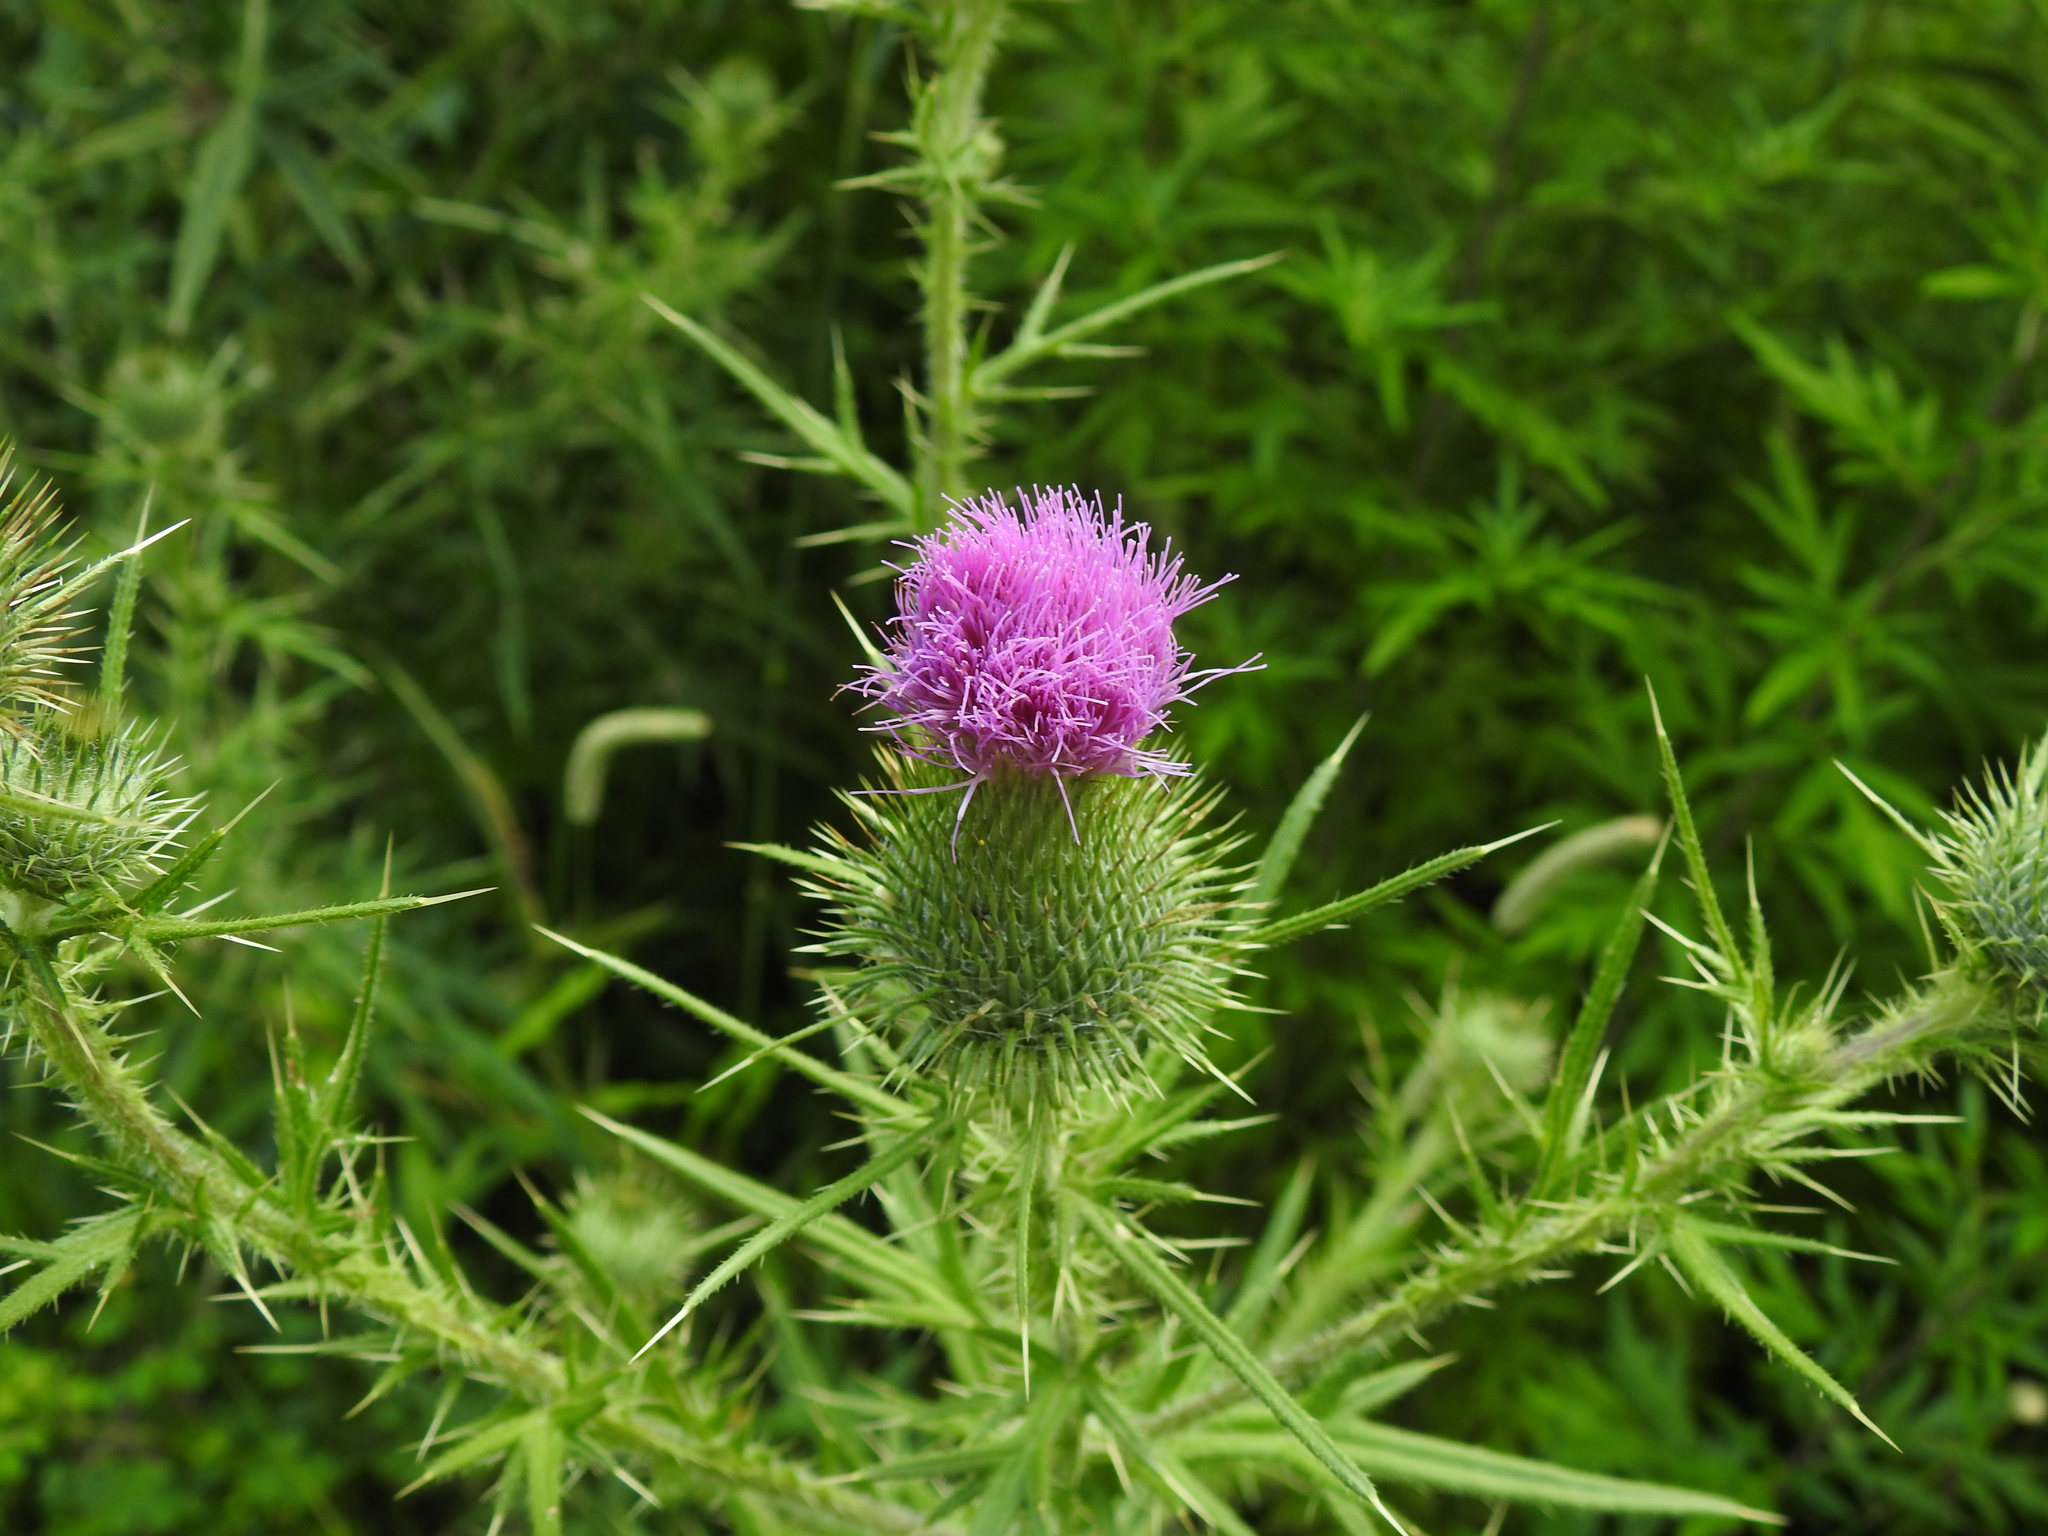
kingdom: Plantae
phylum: Tracheophyta
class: Magnoliopsida
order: Asterales
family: Asteraceae
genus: Cirsium
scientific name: Cirsium vulgare
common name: Bull thistle
